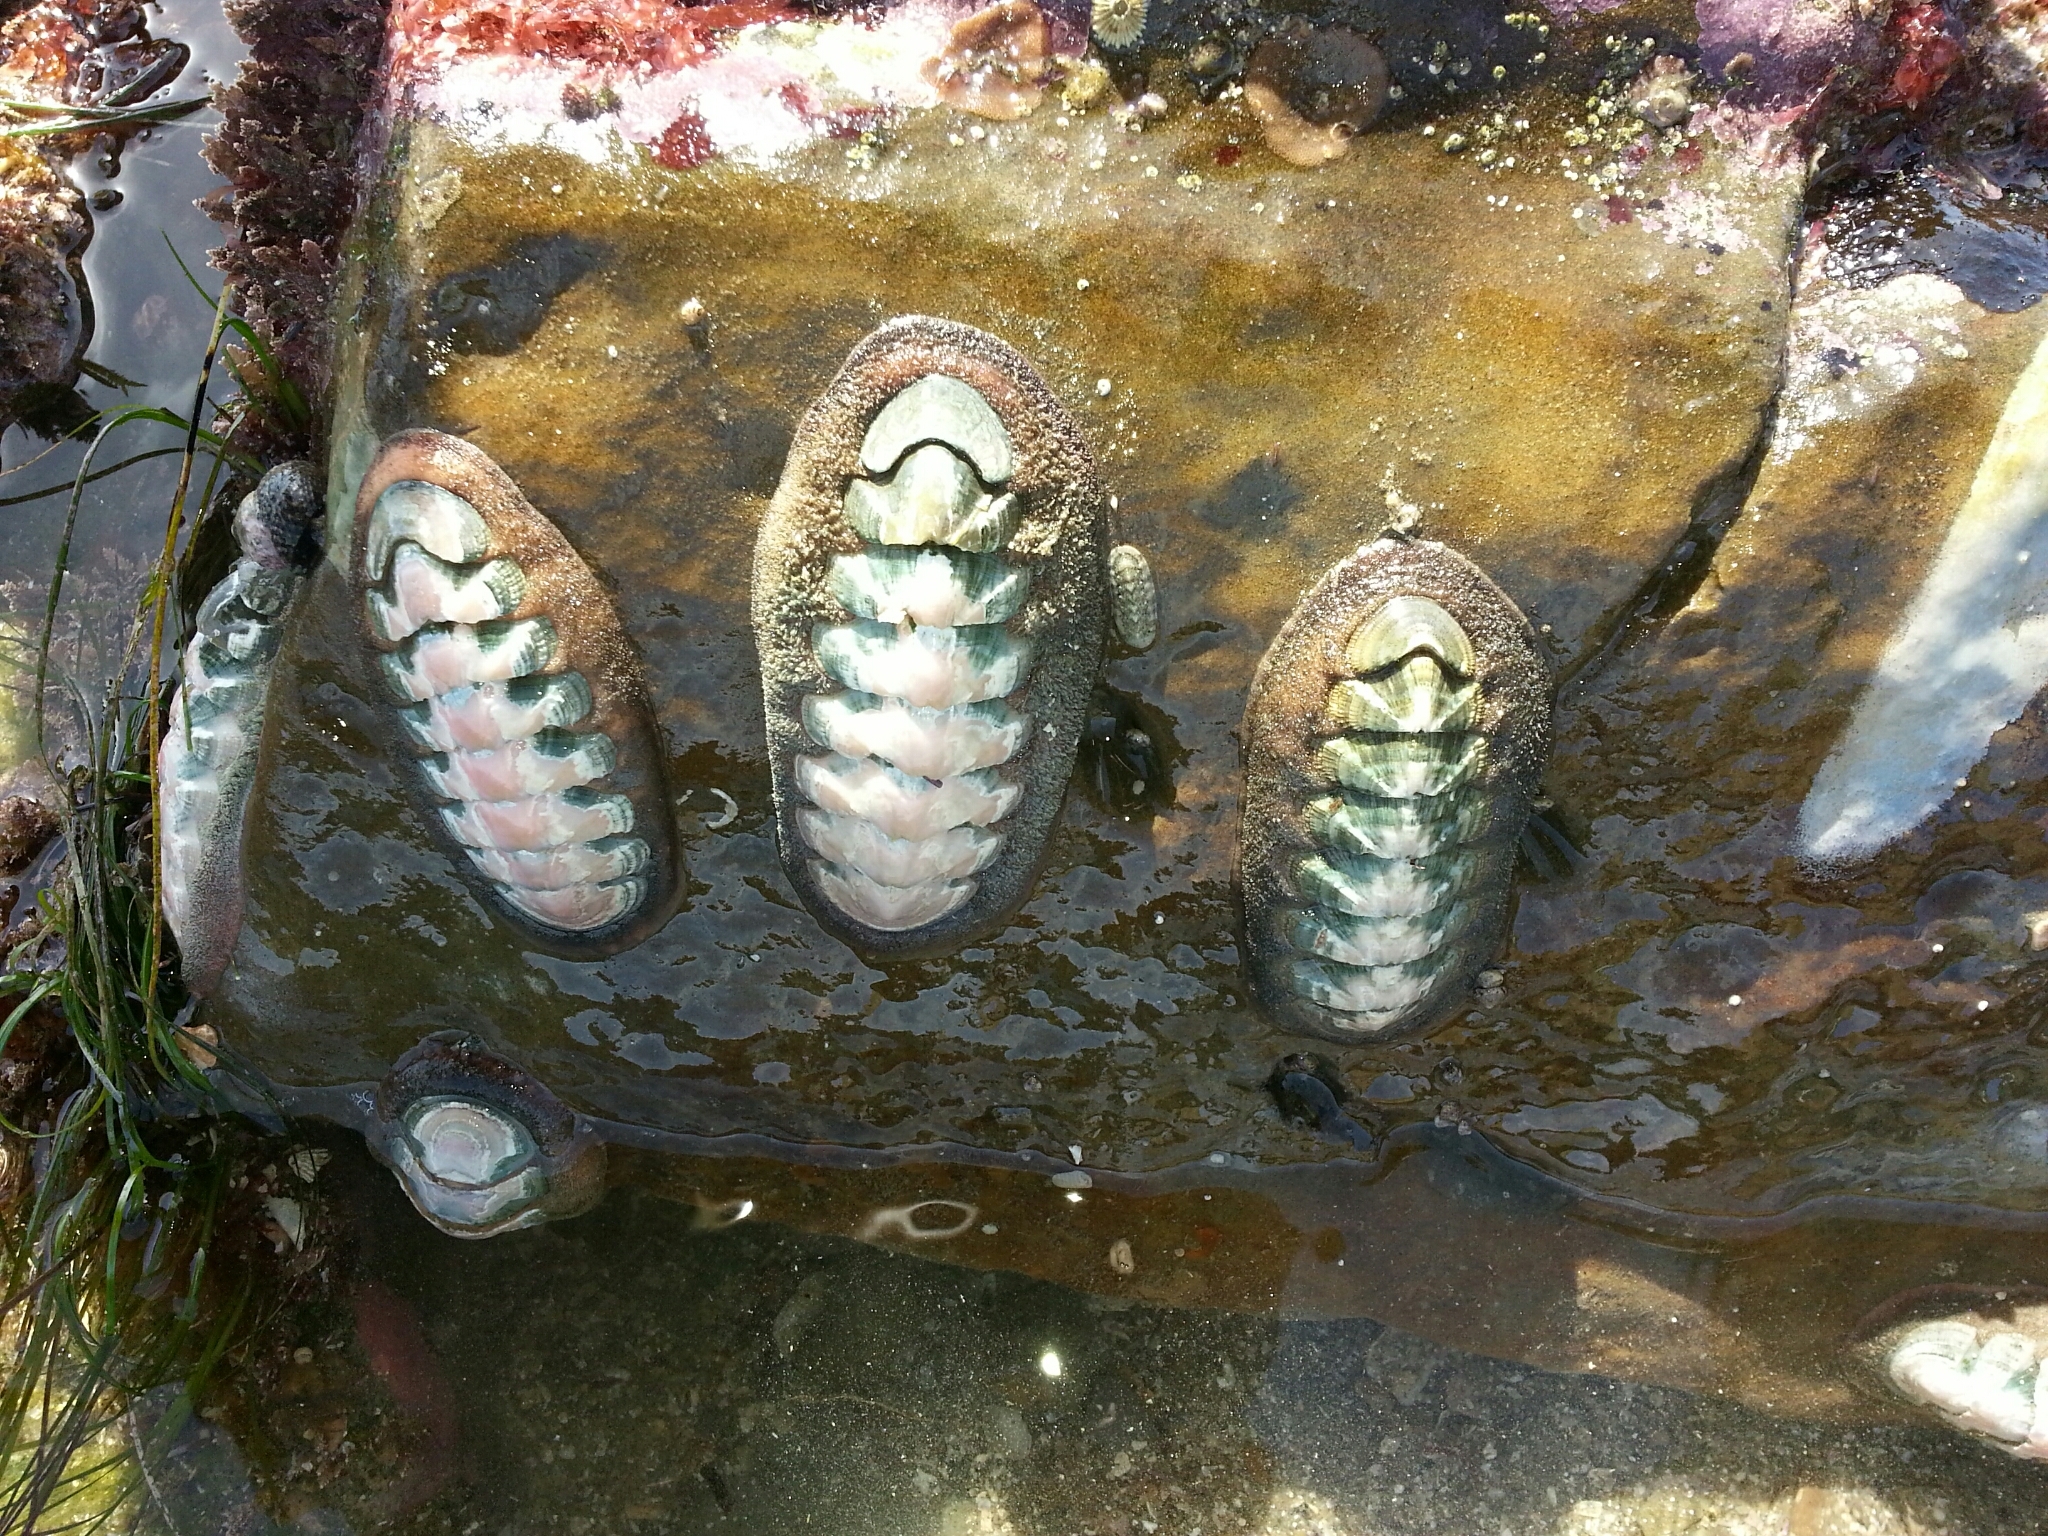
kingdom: Animalia
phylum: Mollusca
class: Polyplacophora
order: Chitonida
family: Ischnochitonidae
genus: Stenoplax
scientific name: Stenoplax conspicua
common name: Conspicuous chiton
